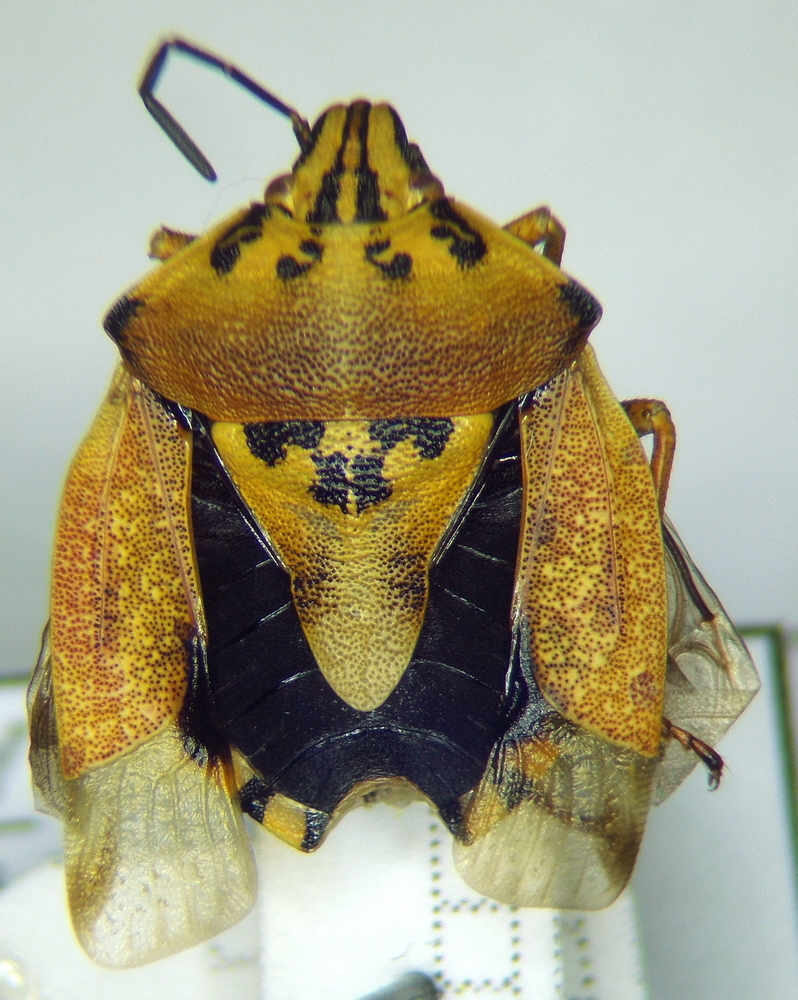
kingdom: Animalia
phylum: Arthropoda
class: Insecta
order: Hemiptera
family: Pentatomidae
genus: Carpocoris
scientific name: Carpocoris purpureipennis
